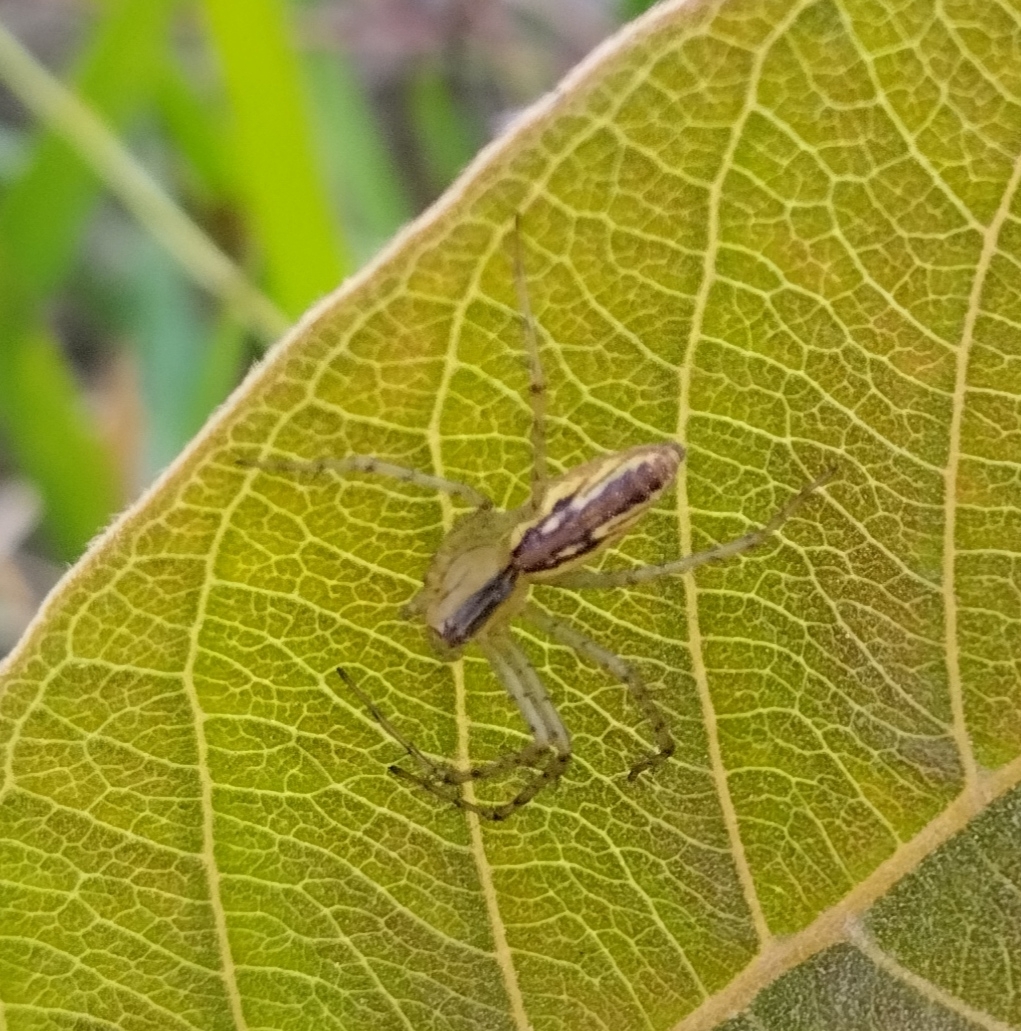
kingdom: Animalia
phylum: Arthropoda
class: Arachnida
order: Araneae
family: Oxyopidae
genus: Peucetia
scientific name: Peucetia rubrolineata
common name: Lynx spiders
